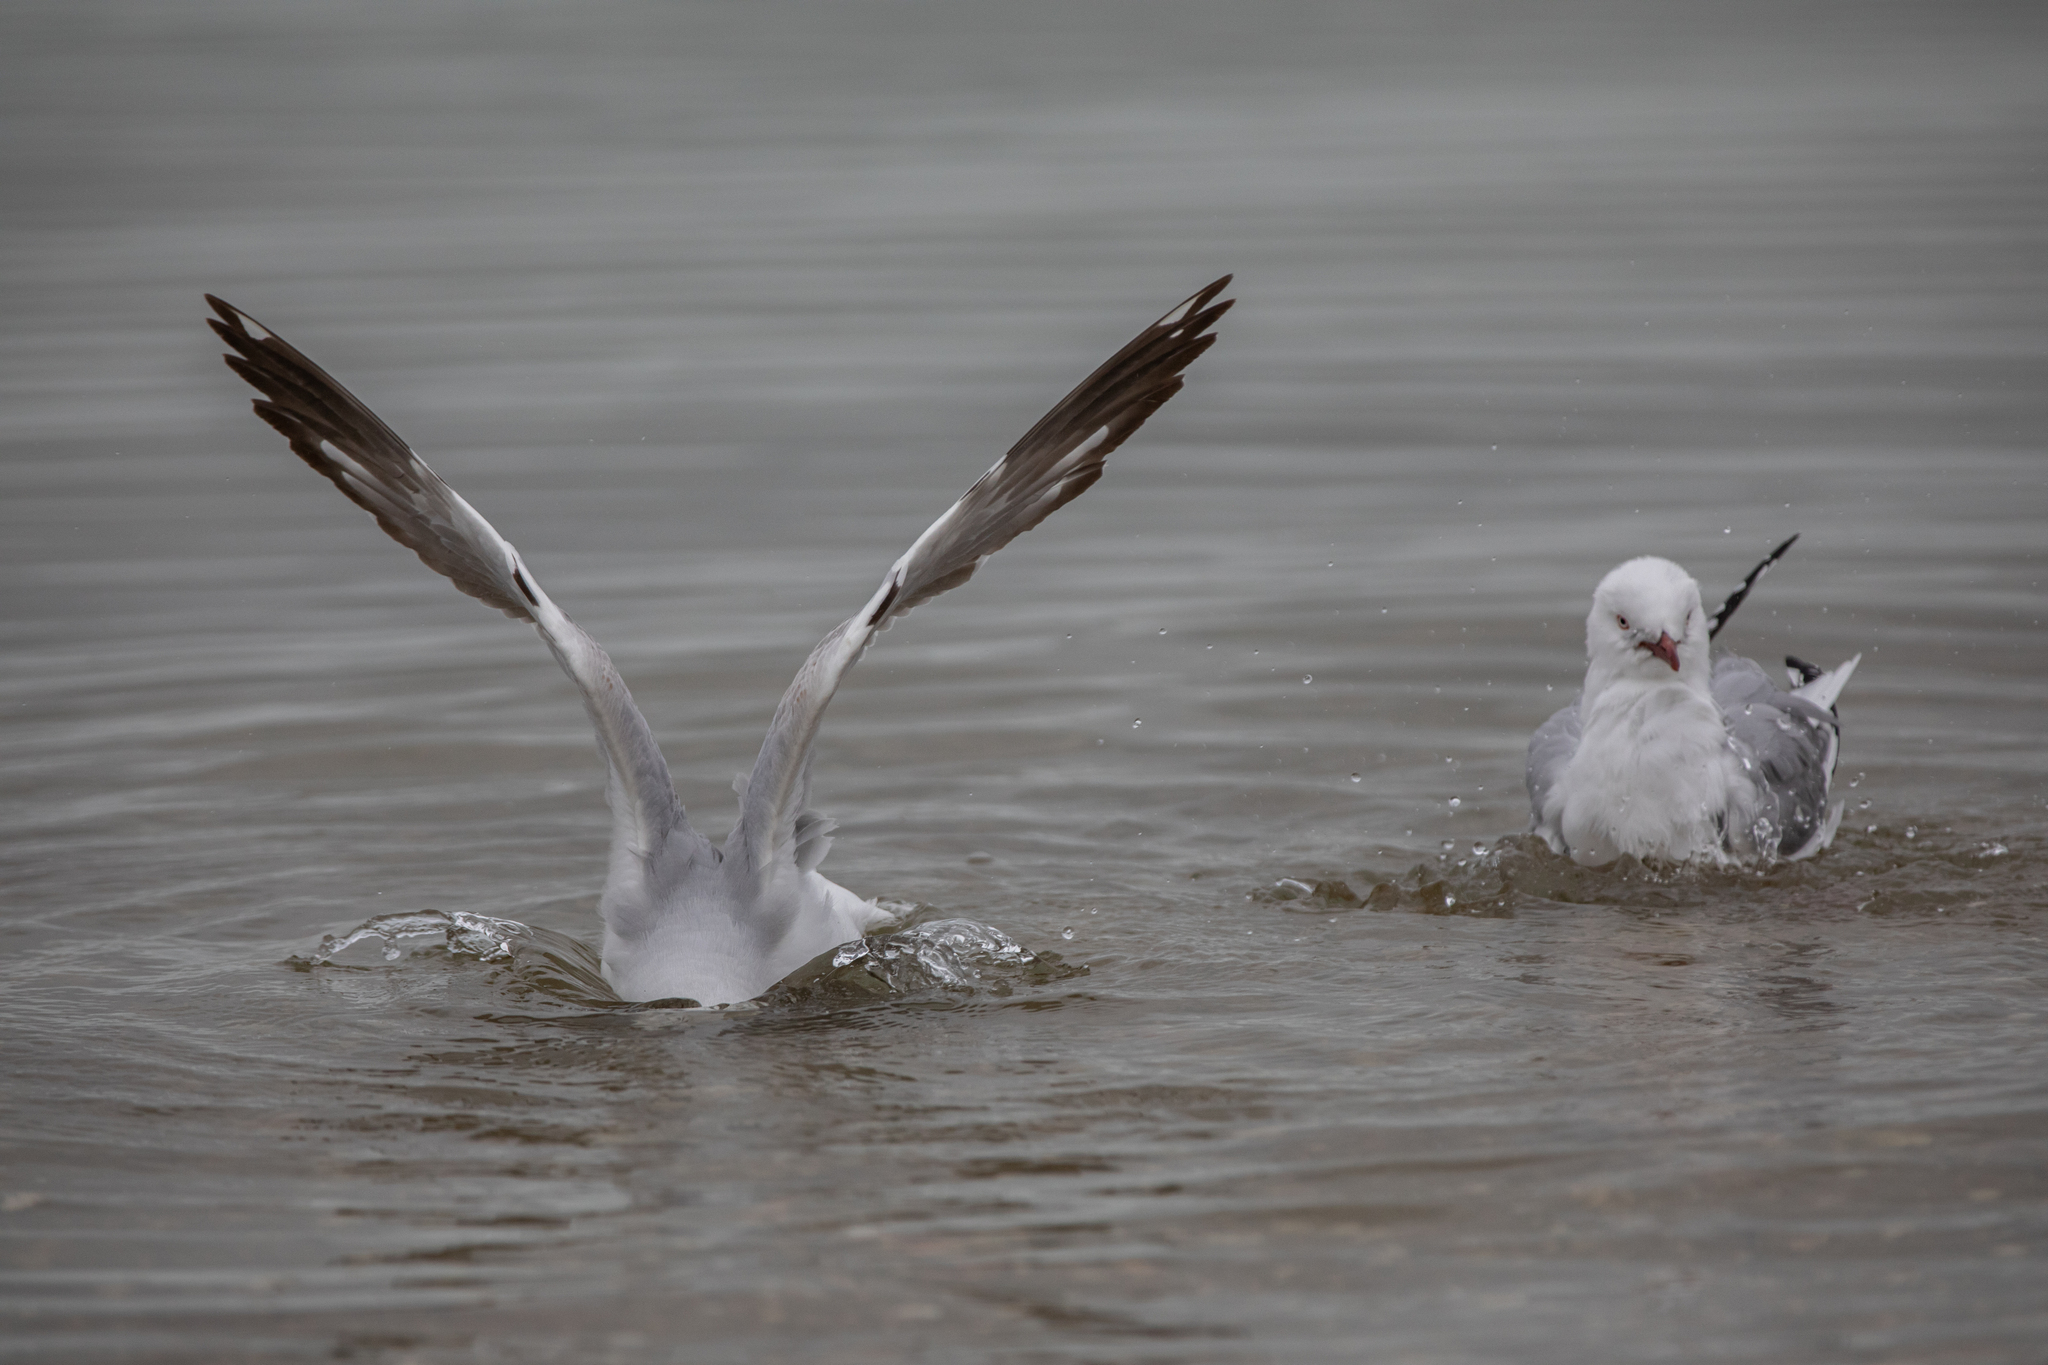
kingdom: Animalia
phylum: Chordata
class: Aves
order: Charadriiformes
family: Laridae
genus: Chroicocephalus
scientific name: Chroicocephalus novaehollandiae
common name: Silver gull
